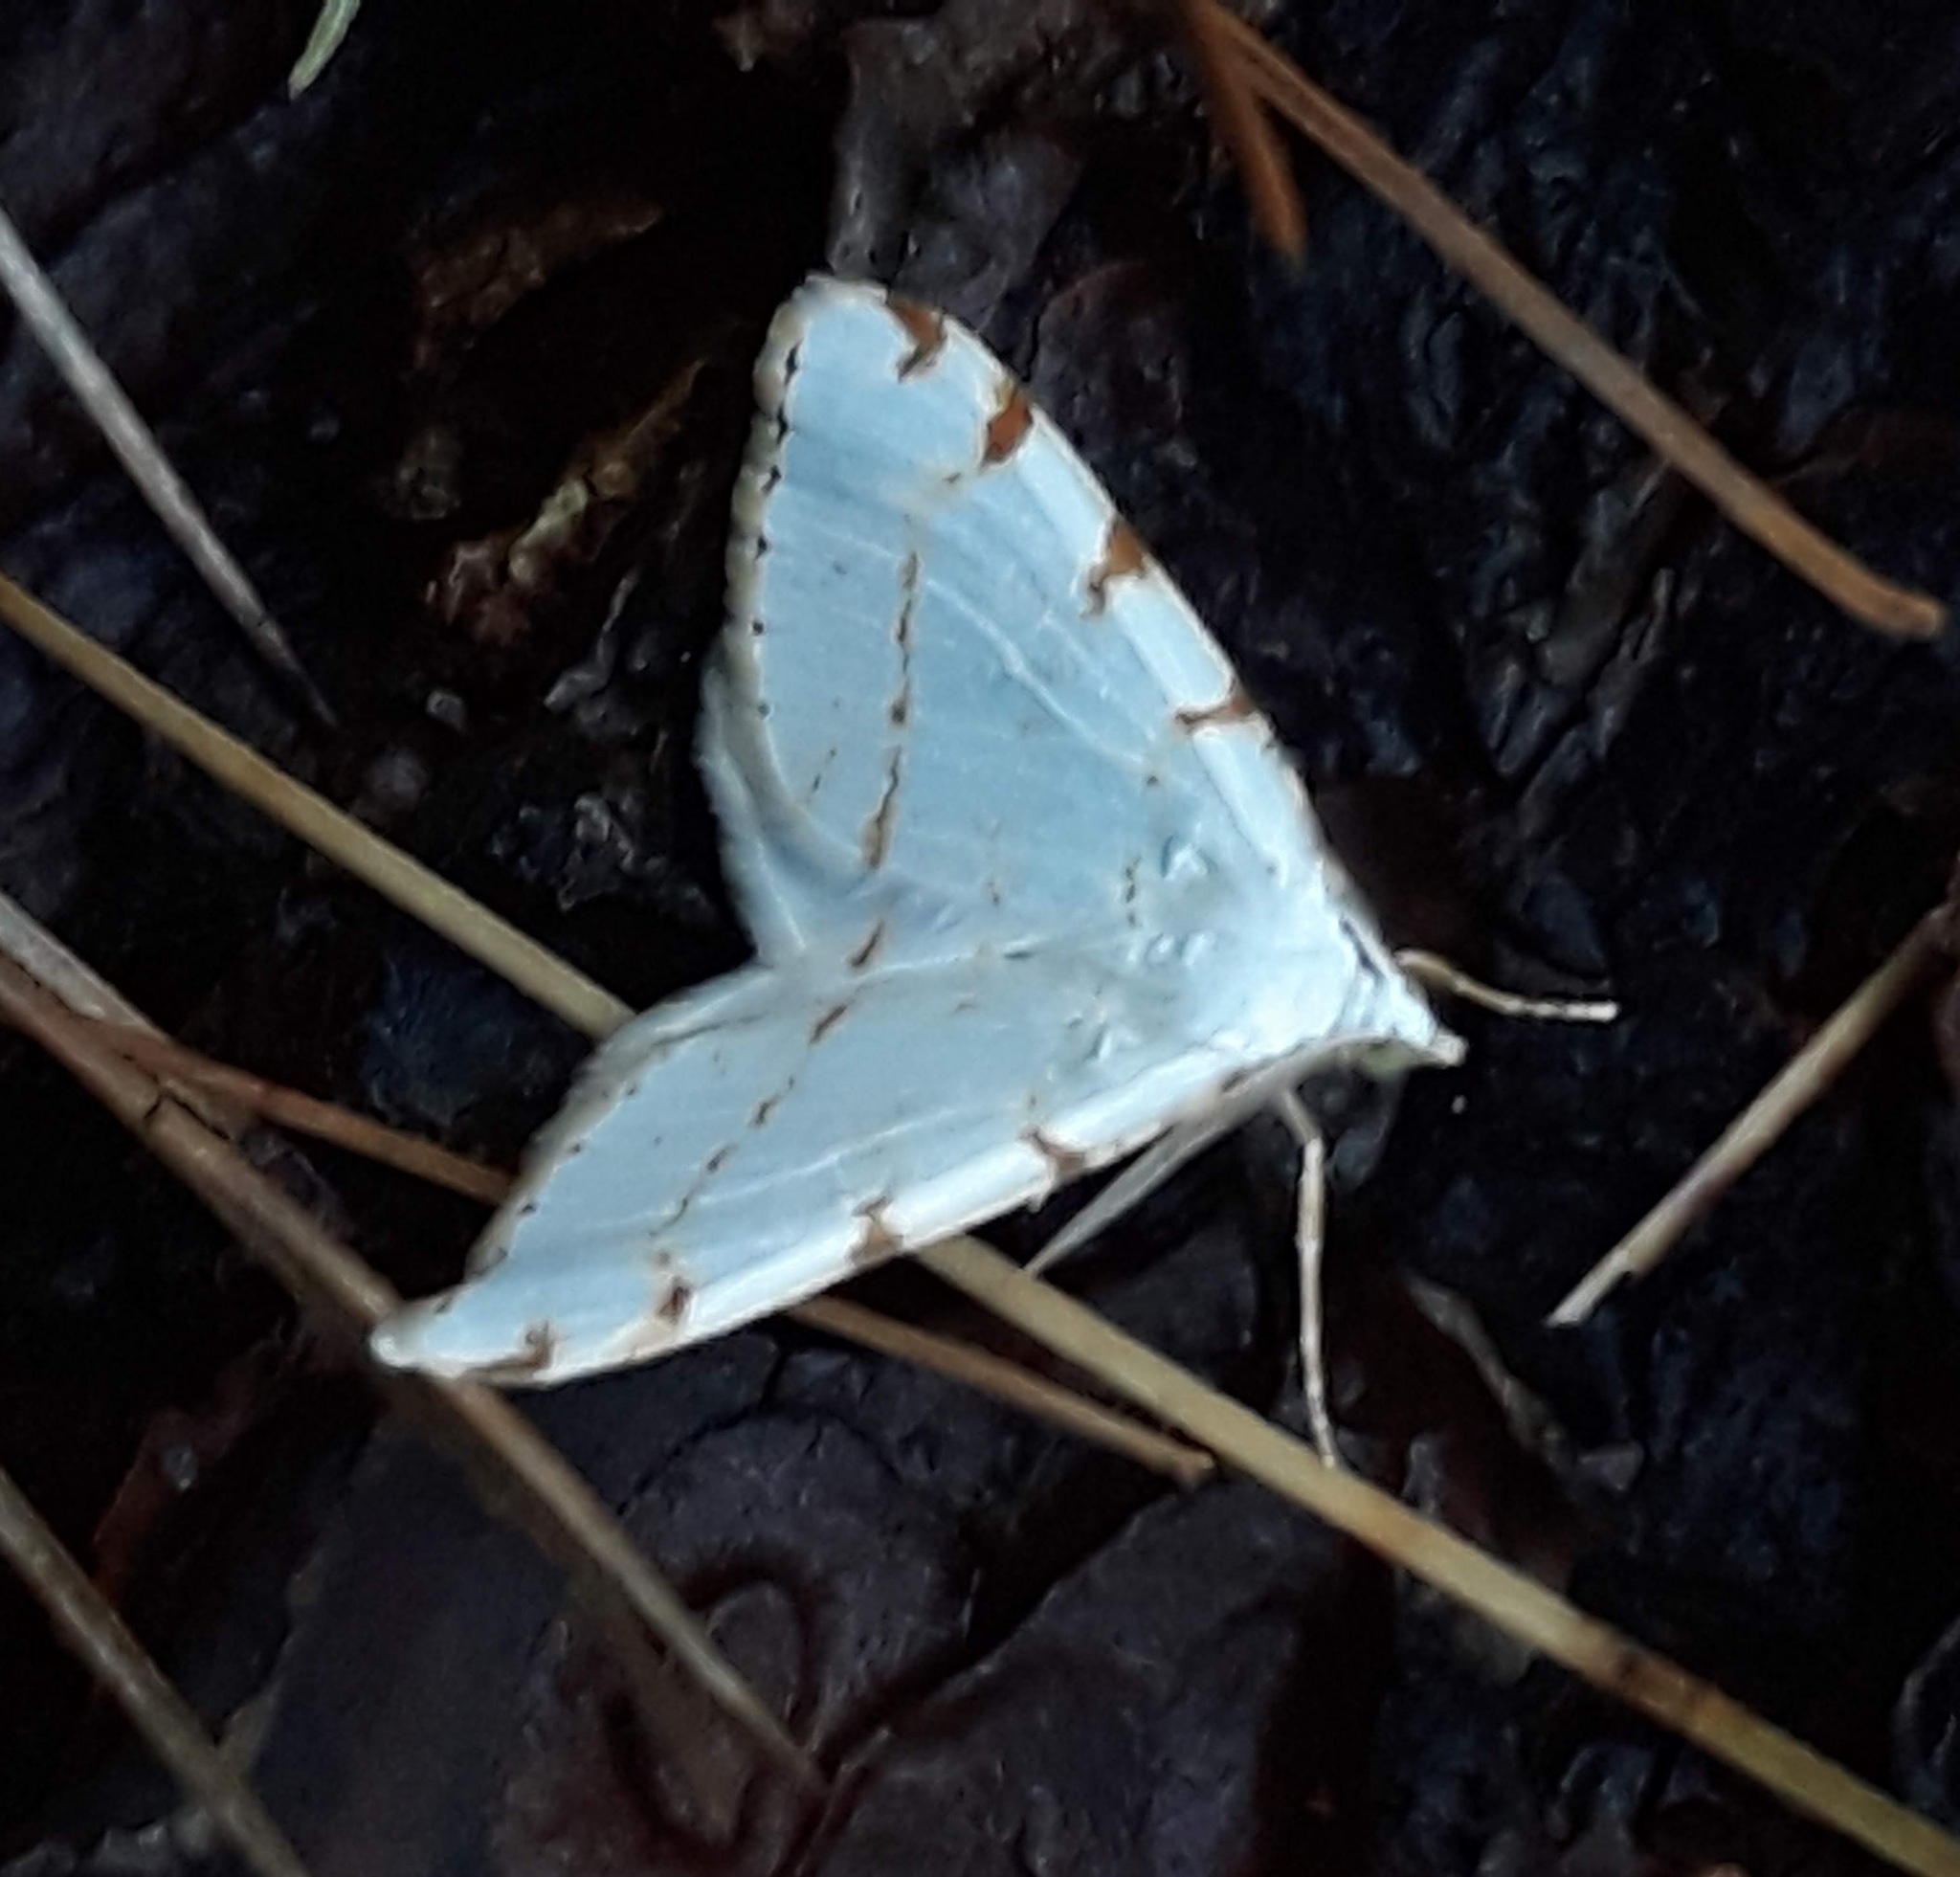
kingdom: Animalia
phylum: Arthropoda
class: Insecta
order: Lepidoptera
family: Geometridae
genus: Macaria
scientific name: Macaria pustularia
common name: Lesser maple spanworm moth
